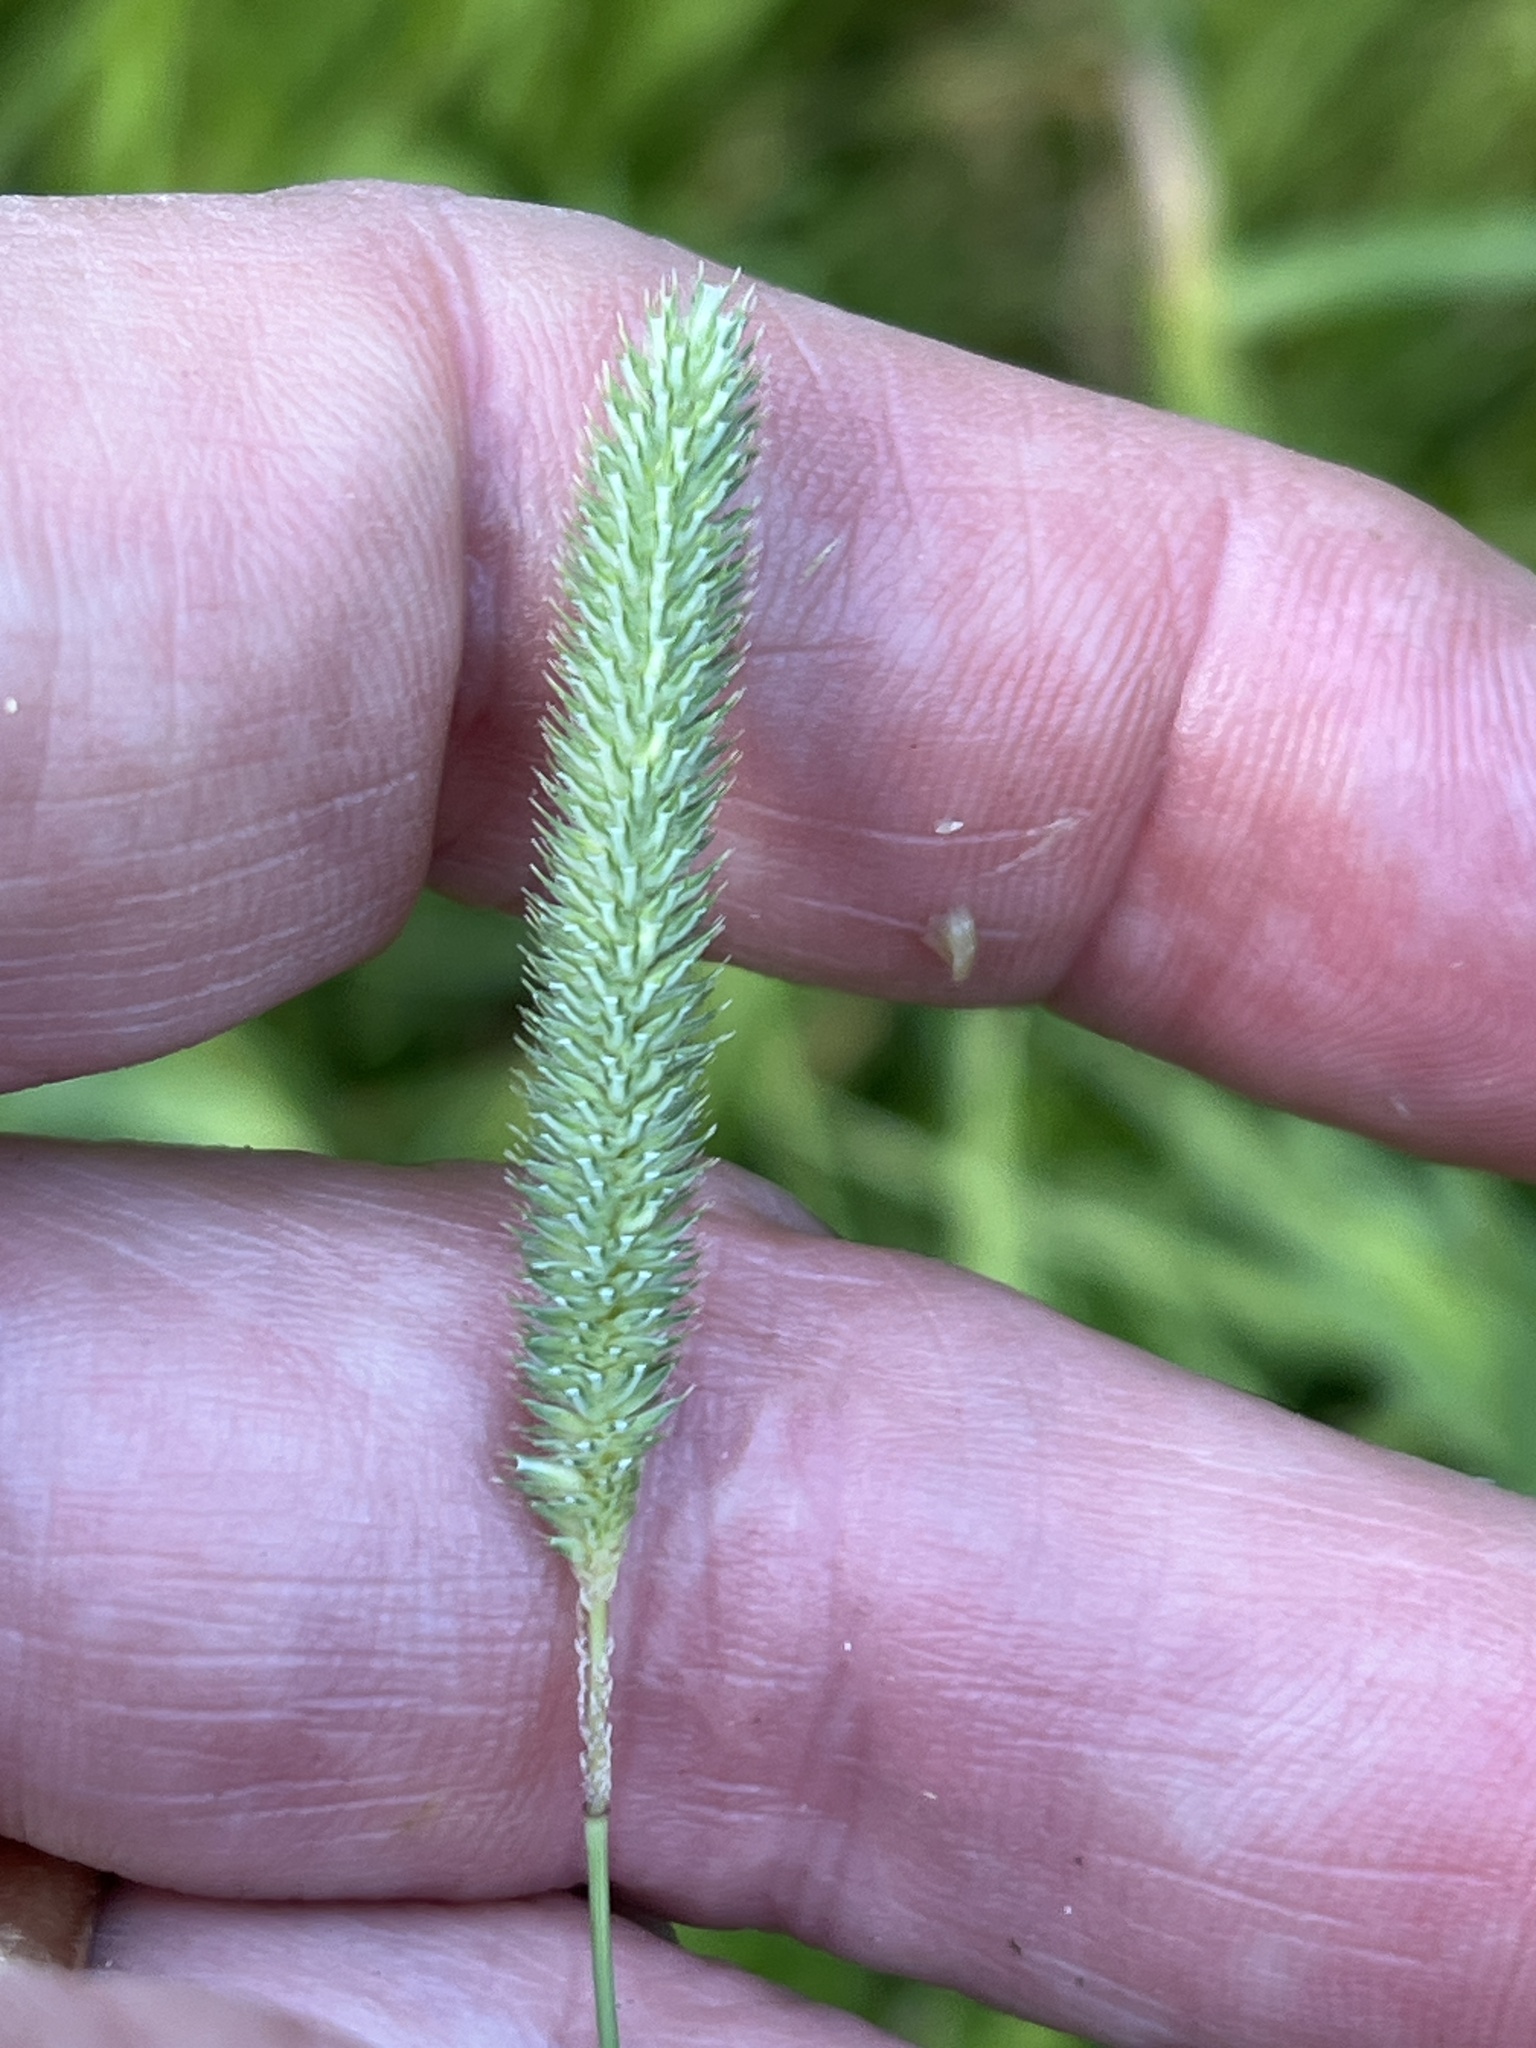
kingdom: Plantae
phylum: Tracheophyta
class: Liliopsida
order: Poales
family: Poaceae
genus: Phleum
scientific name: Phleum pratense
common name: Timothy grass
